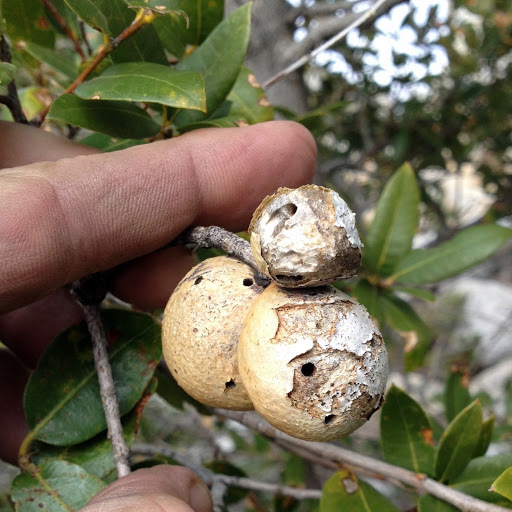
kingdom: Animalia
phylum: Arthropoda
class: Insecta
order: Hymenoptera
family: Cynipidae
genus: Disholandricus
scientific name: Disholandricus
